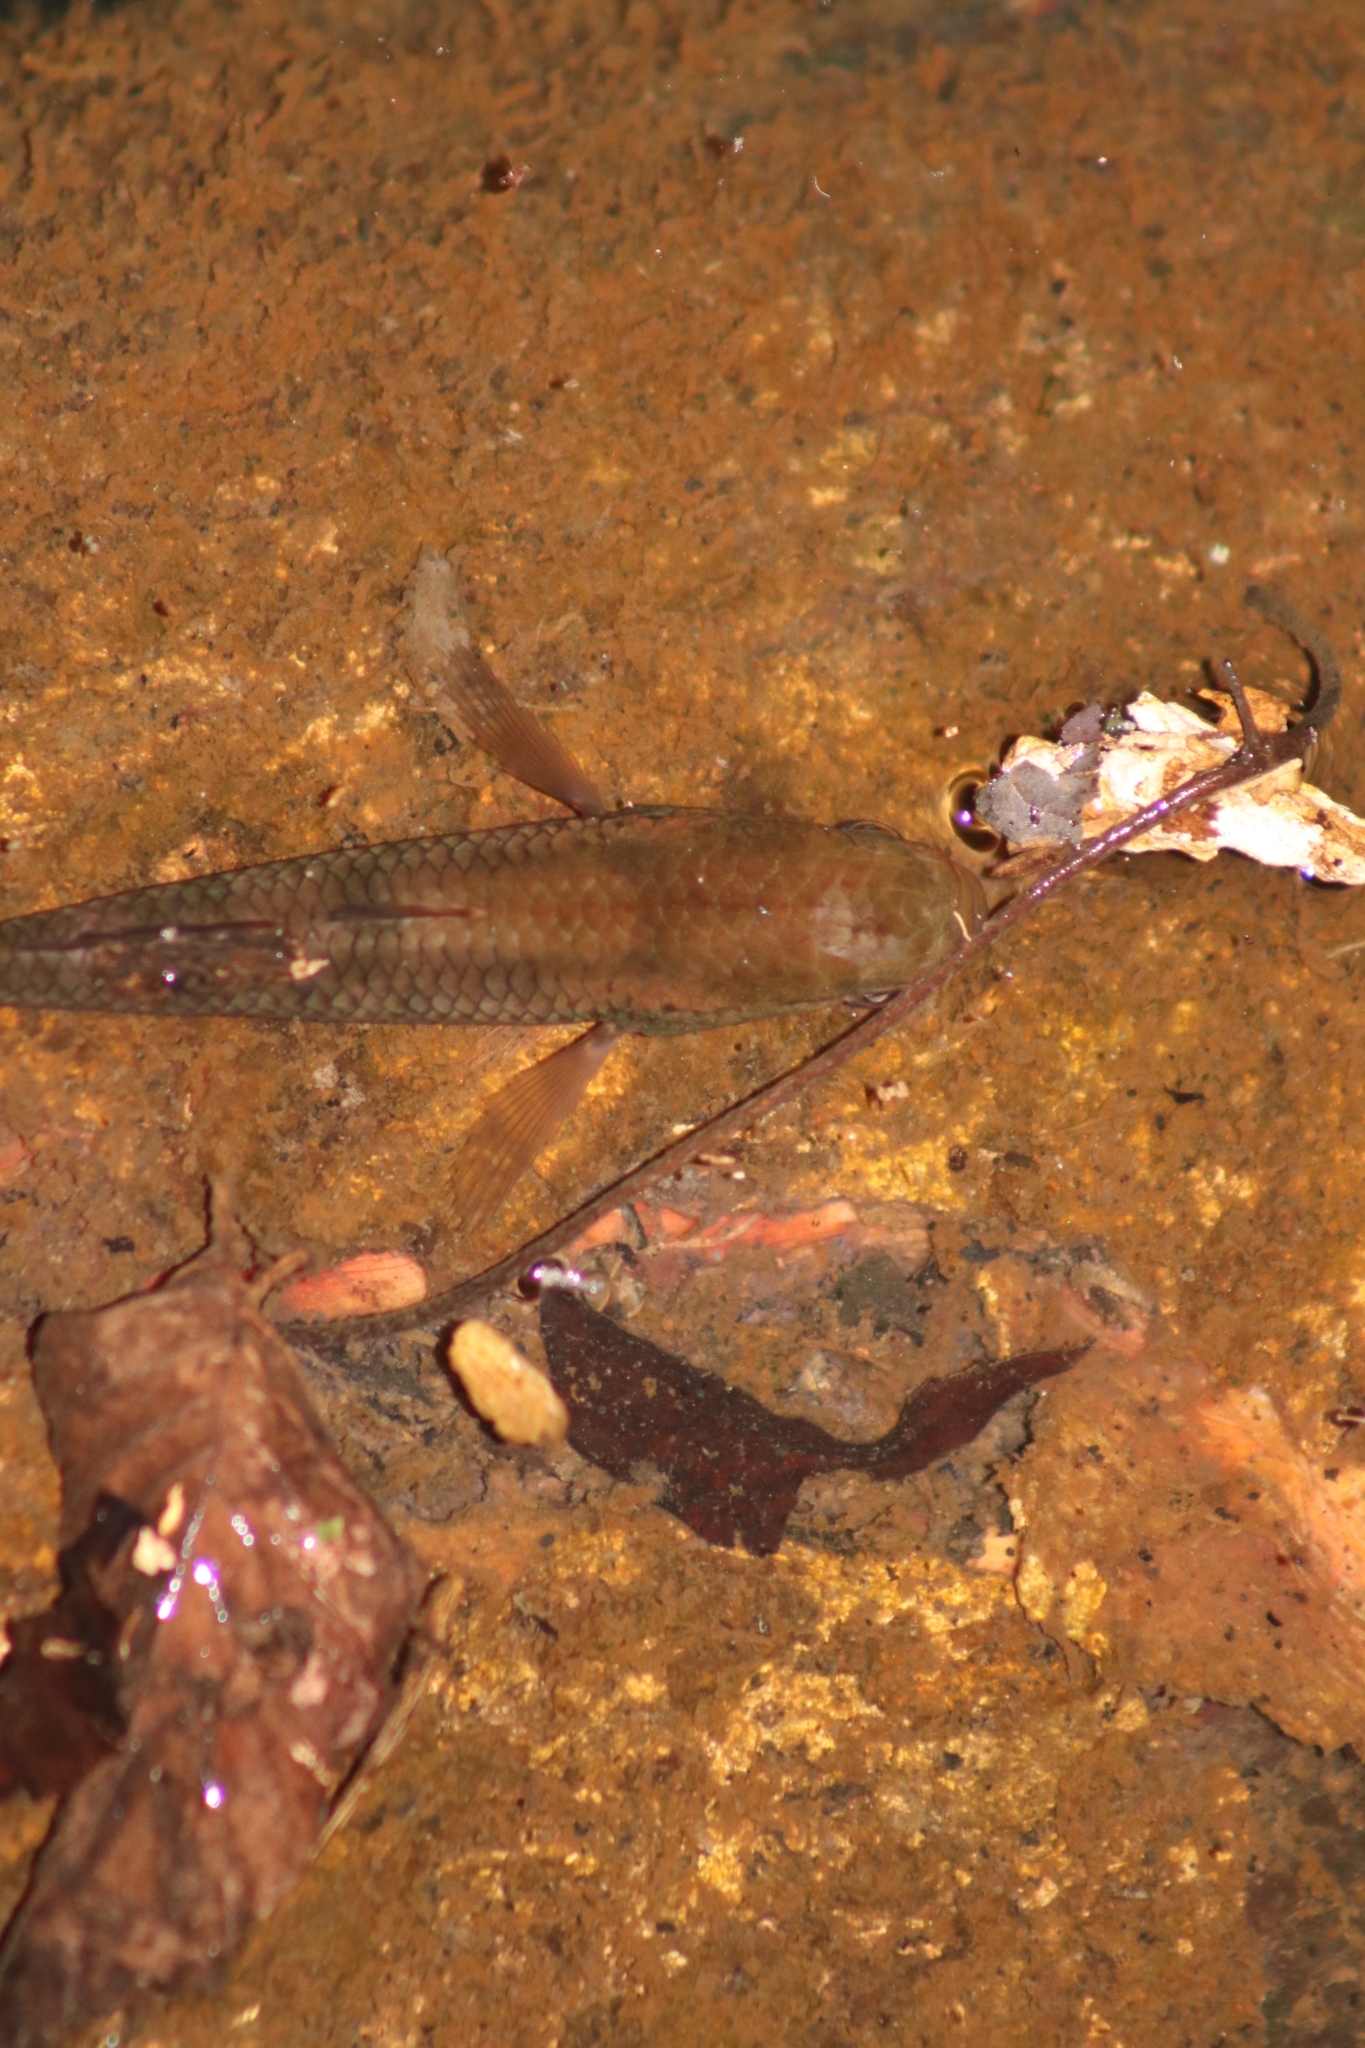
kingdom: Animalia
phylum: Chordata
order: Perciformes
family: Eleotridae
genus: Giuris
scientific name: Giuris
